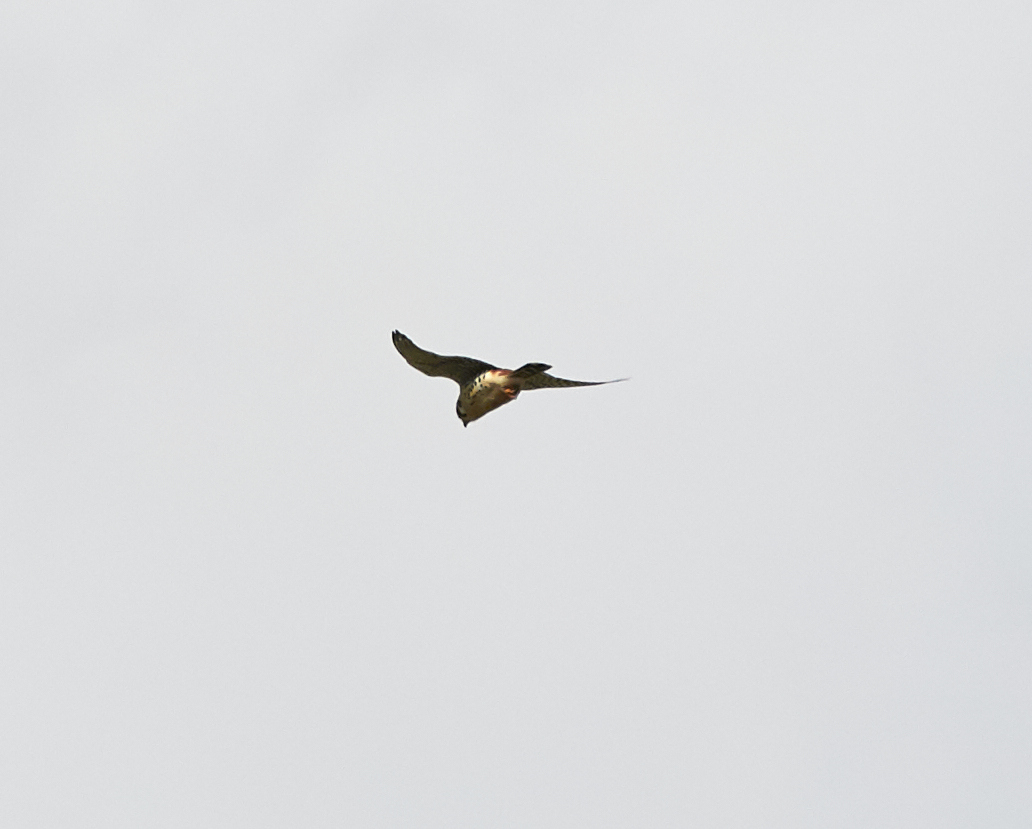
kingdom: Animalia
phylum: Chordata
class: Aves
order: Falconiformes
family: Falconidae
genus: Falco
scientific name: Falco sparverius
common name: American kestrel
